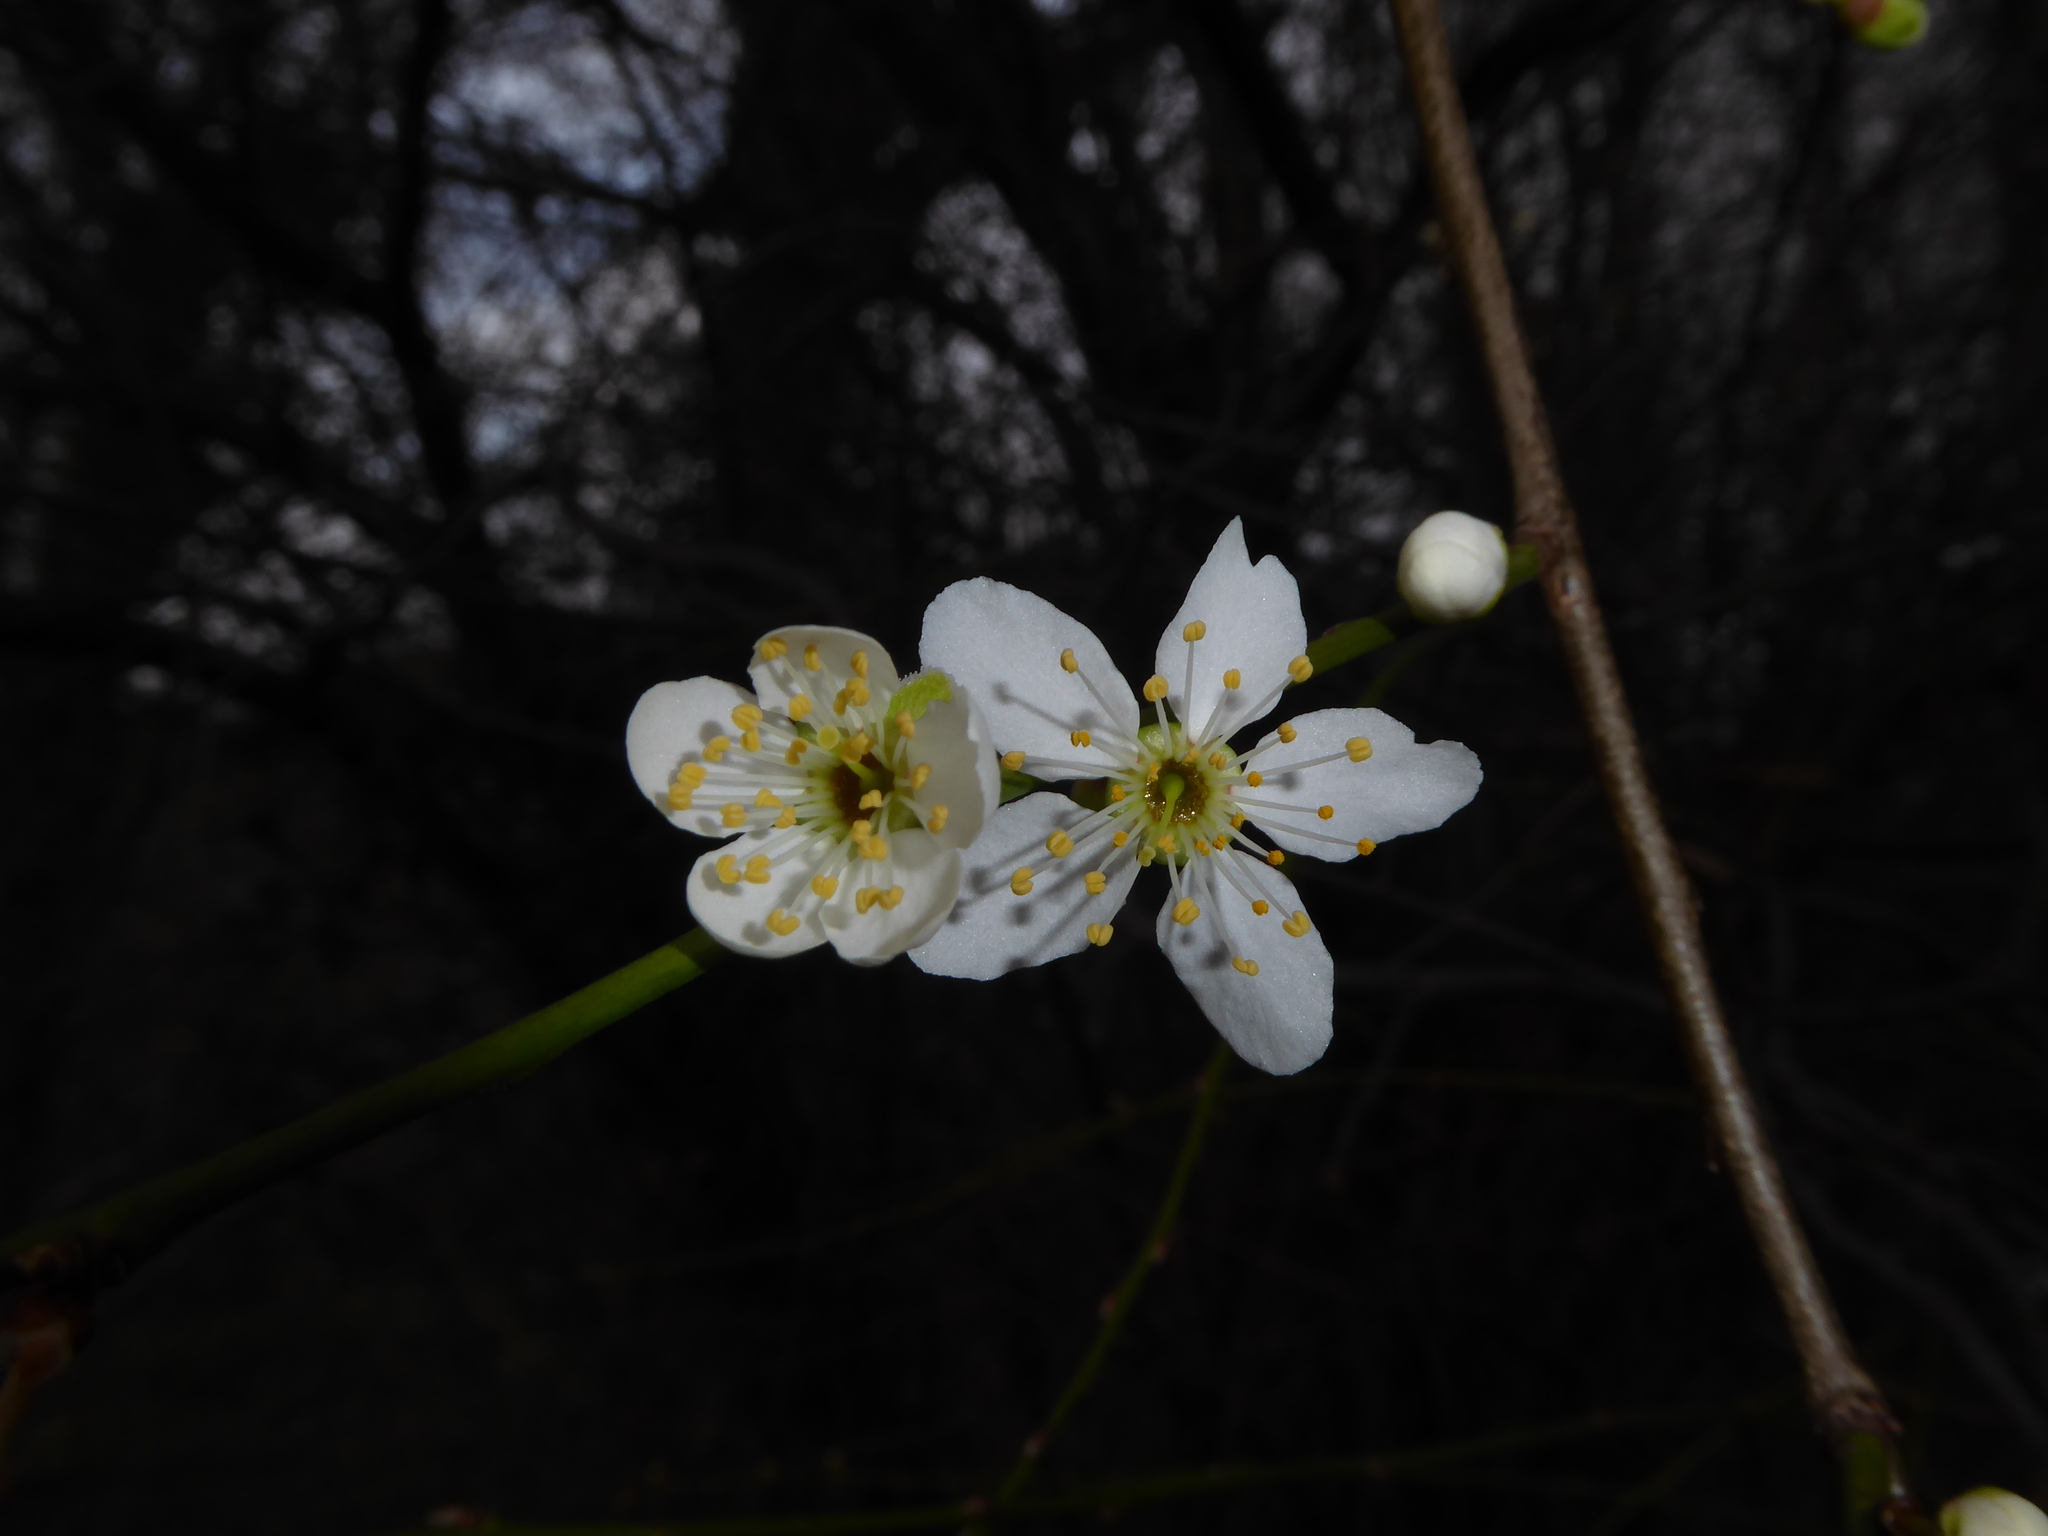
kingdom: Plantae
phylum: Tracheophyta
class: Magnoliopsida
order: Rosales
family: Rosaceae
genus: Prunus
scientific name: Prunus cerasifera
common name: Cherry plum
